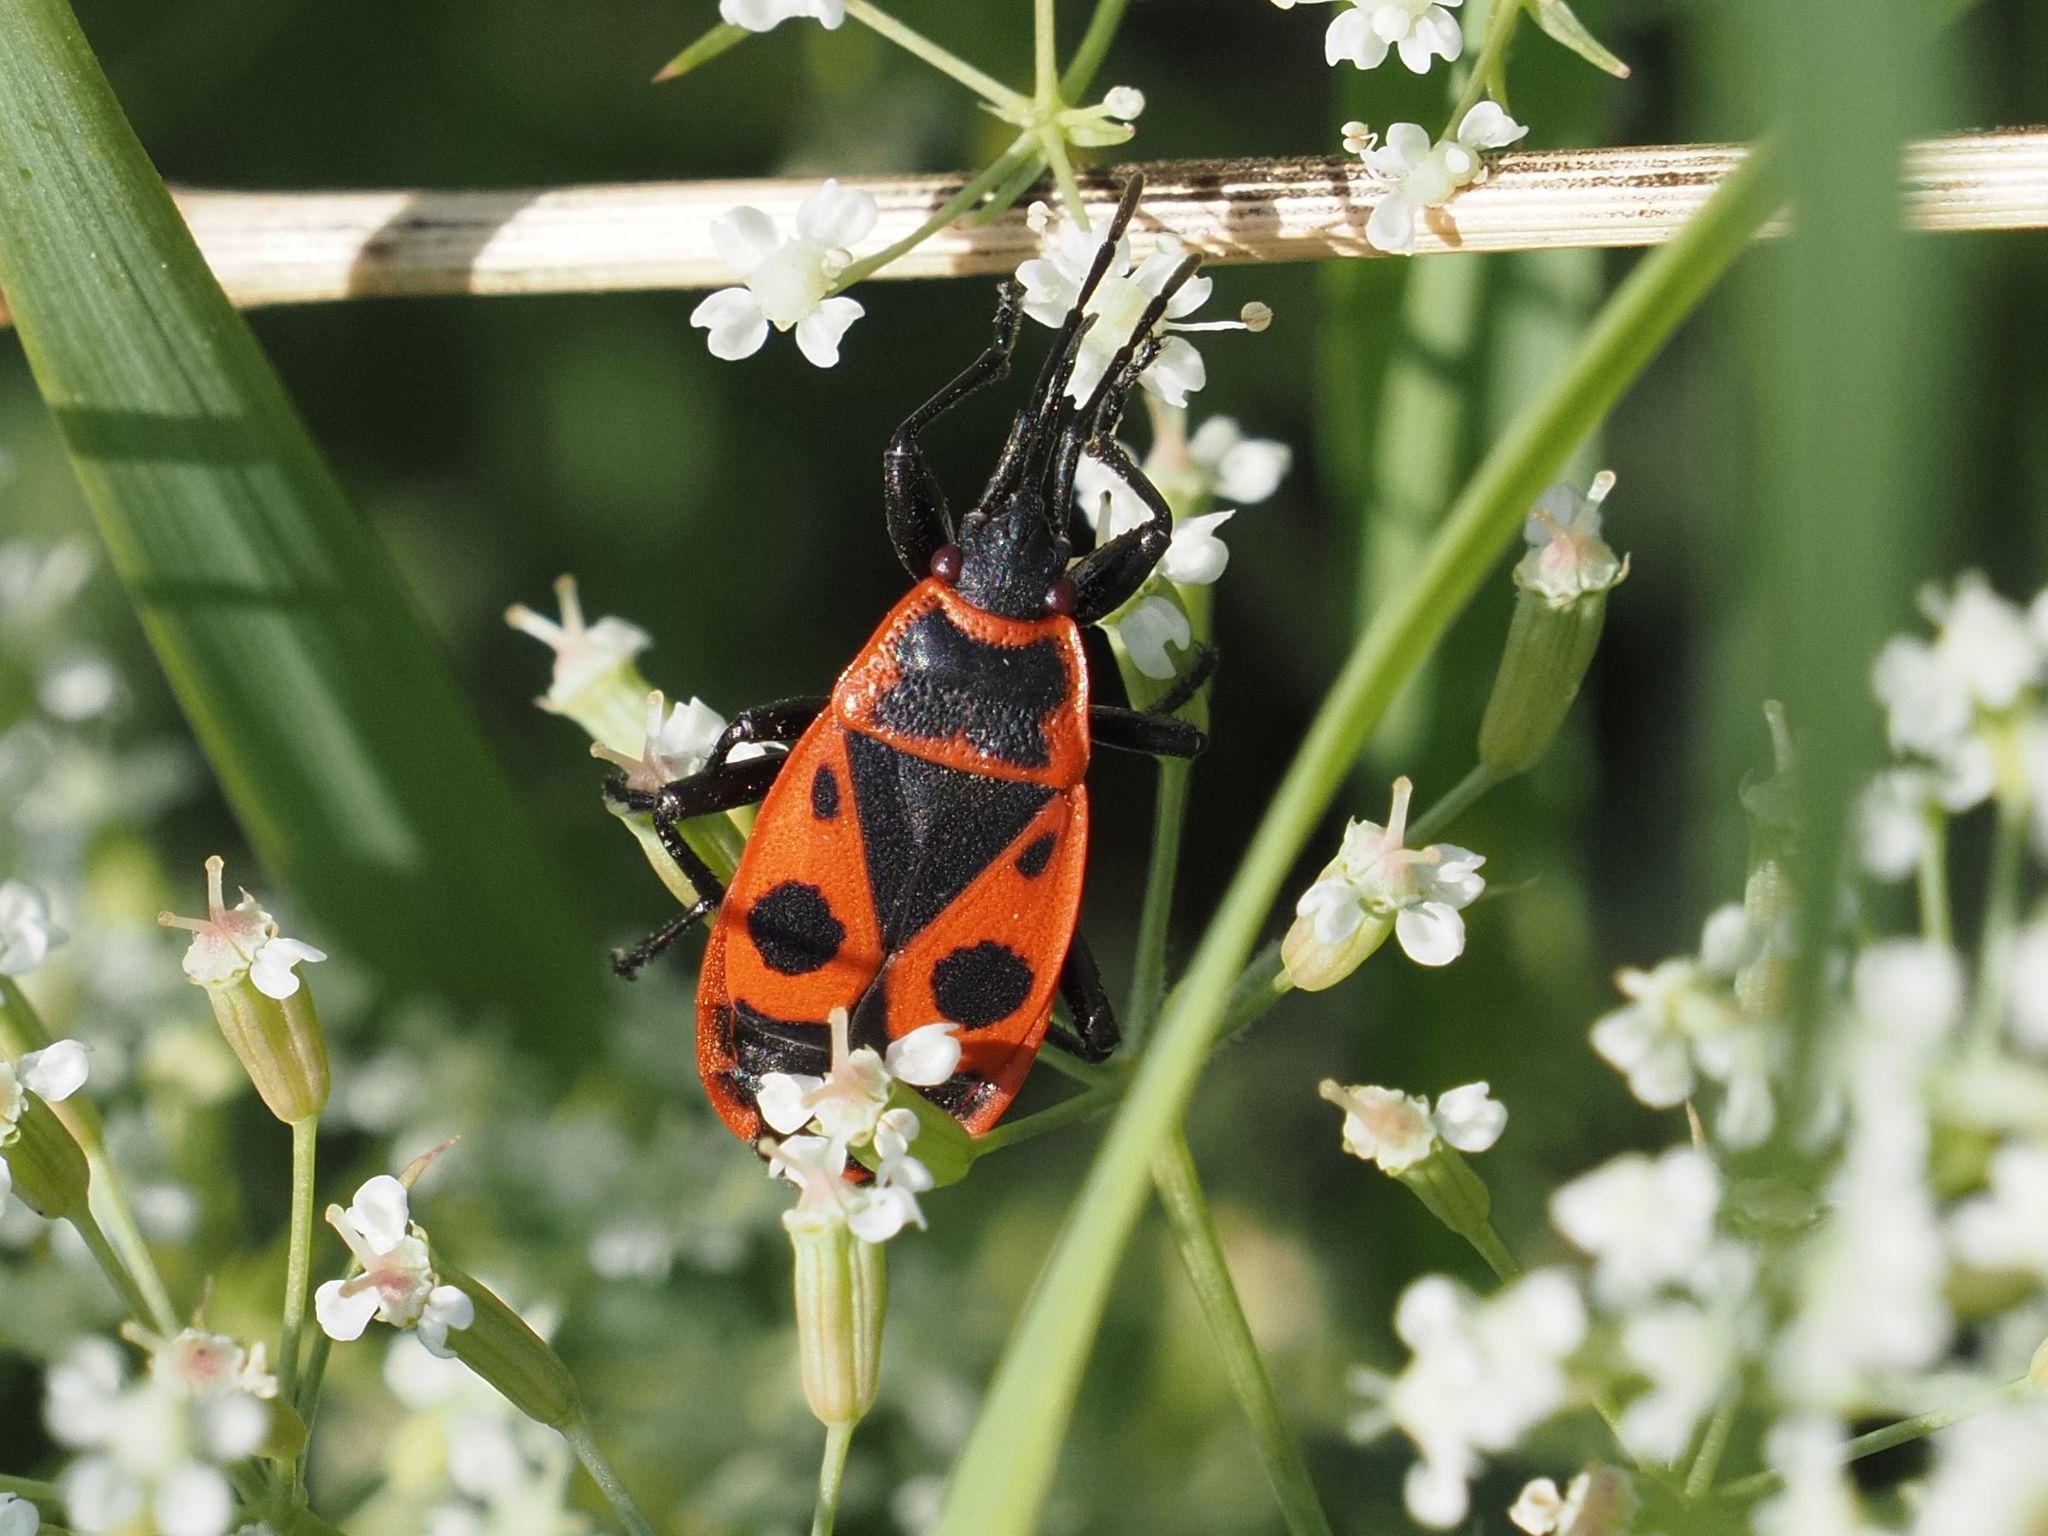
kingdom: Animalia
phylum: Arthropoda
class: Insecta
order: Hemiptera
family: Pyrrhocoridae
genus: Pyrrhocoris
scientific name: Pyrrhocoris apterus
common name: Firebug
